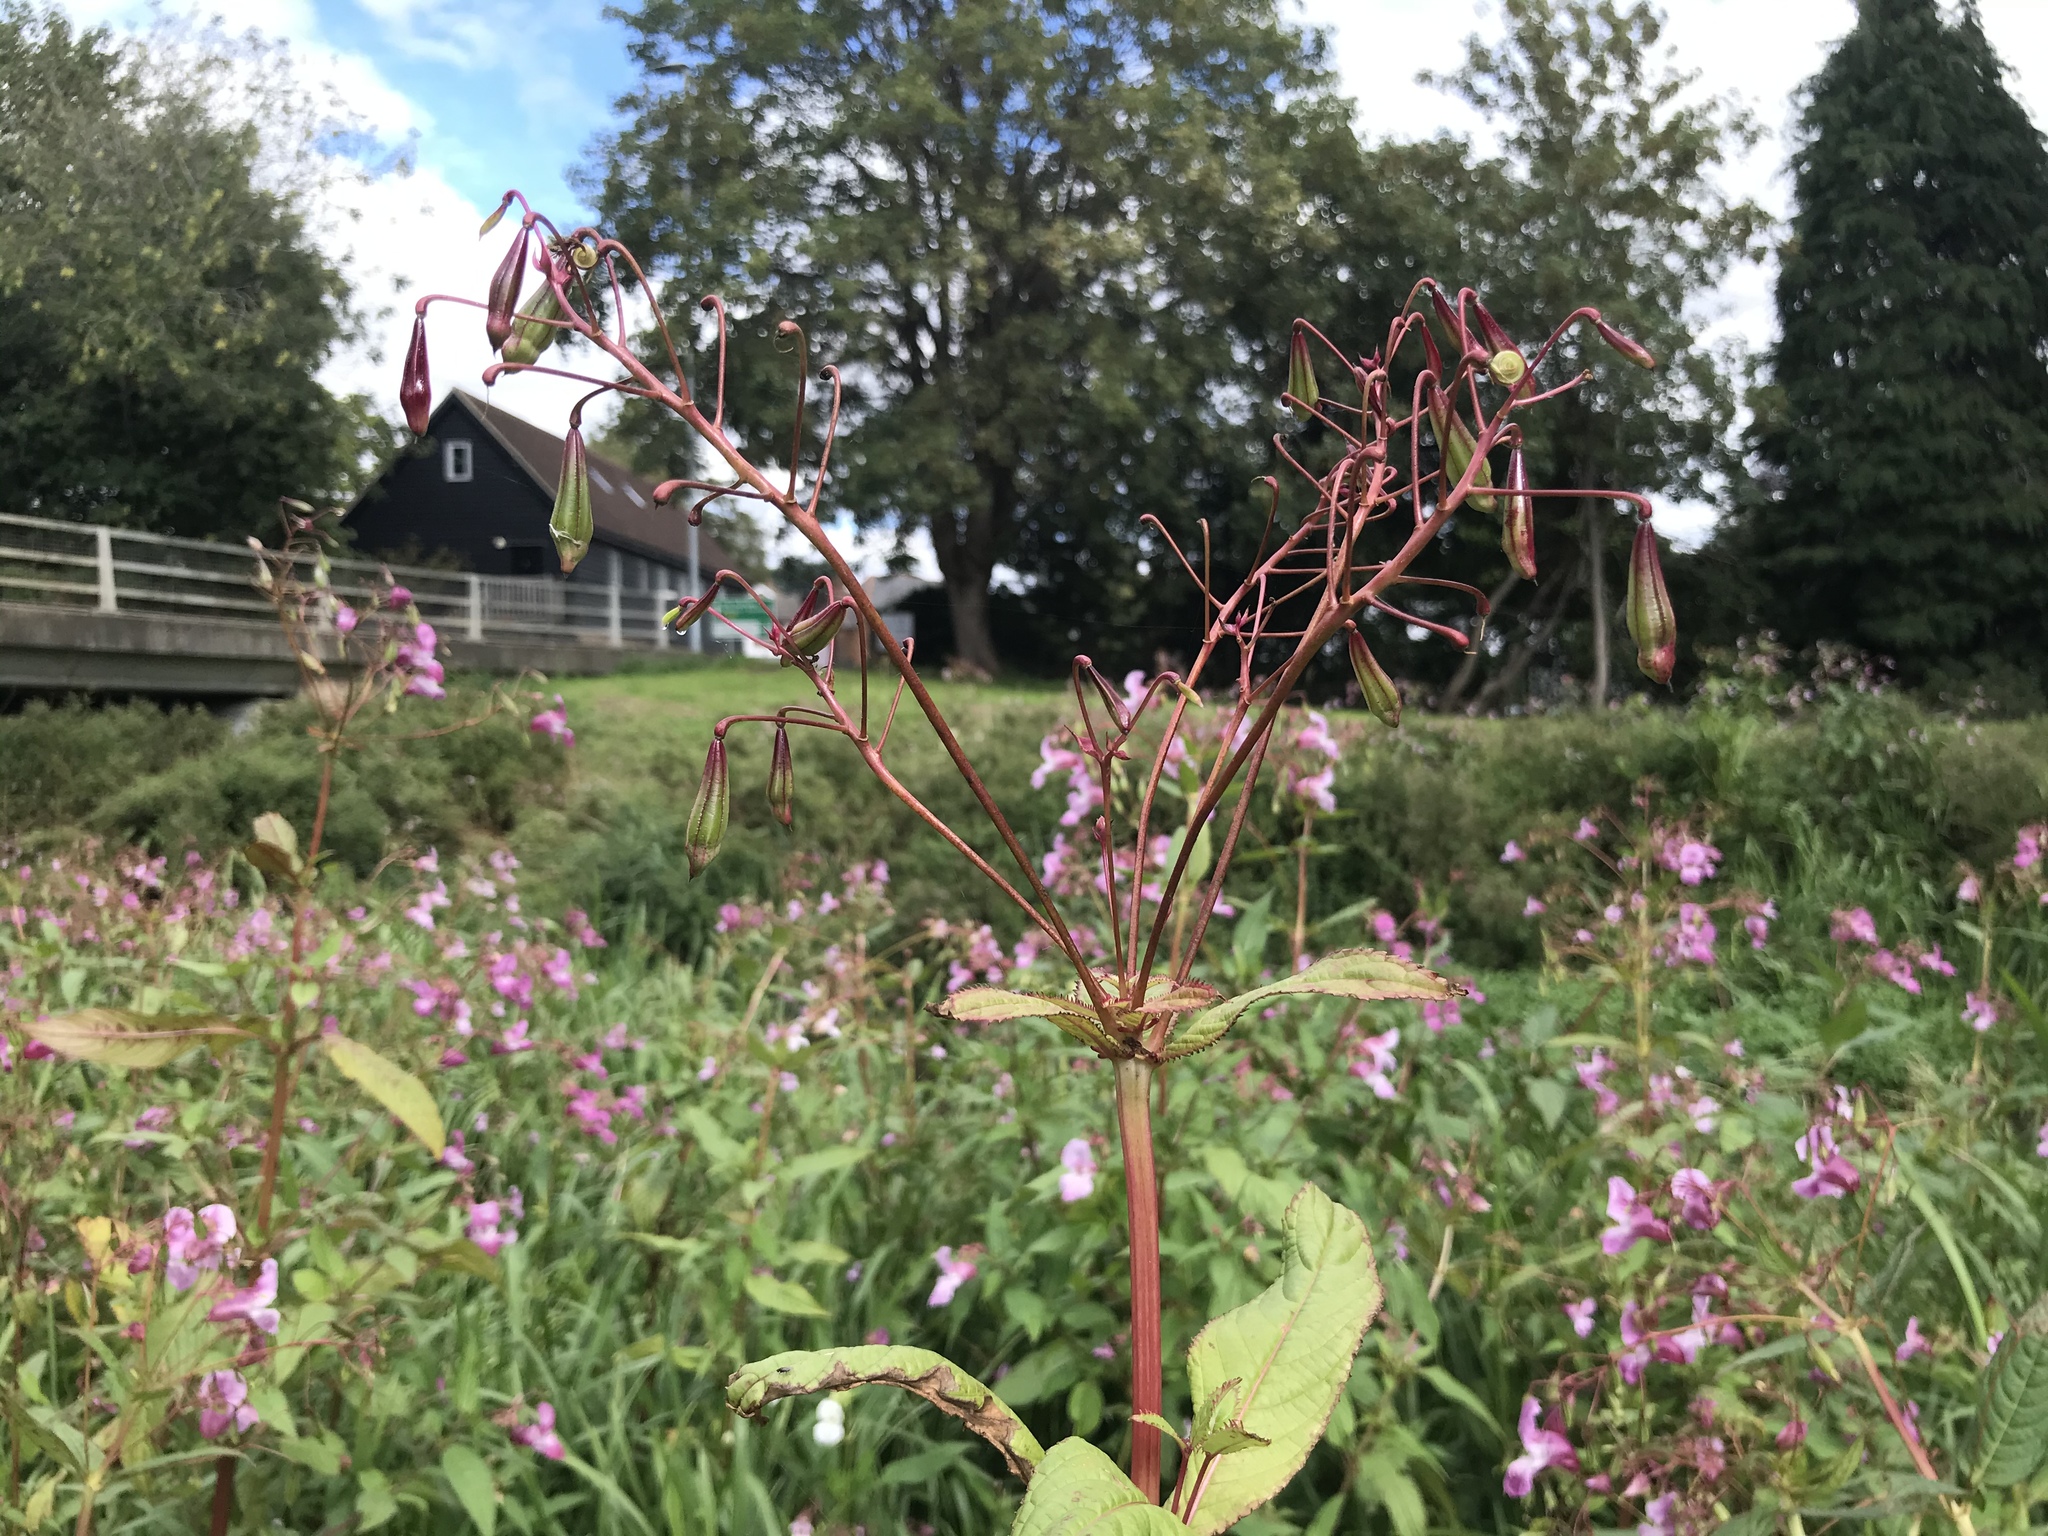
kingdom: Plantae
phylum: Tracheophyta
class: Magnoliopsida
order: Ericales
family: Balsaminaceae
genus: Impatiens
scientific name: Impatiens glandulifera
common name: Himalayan balsam
